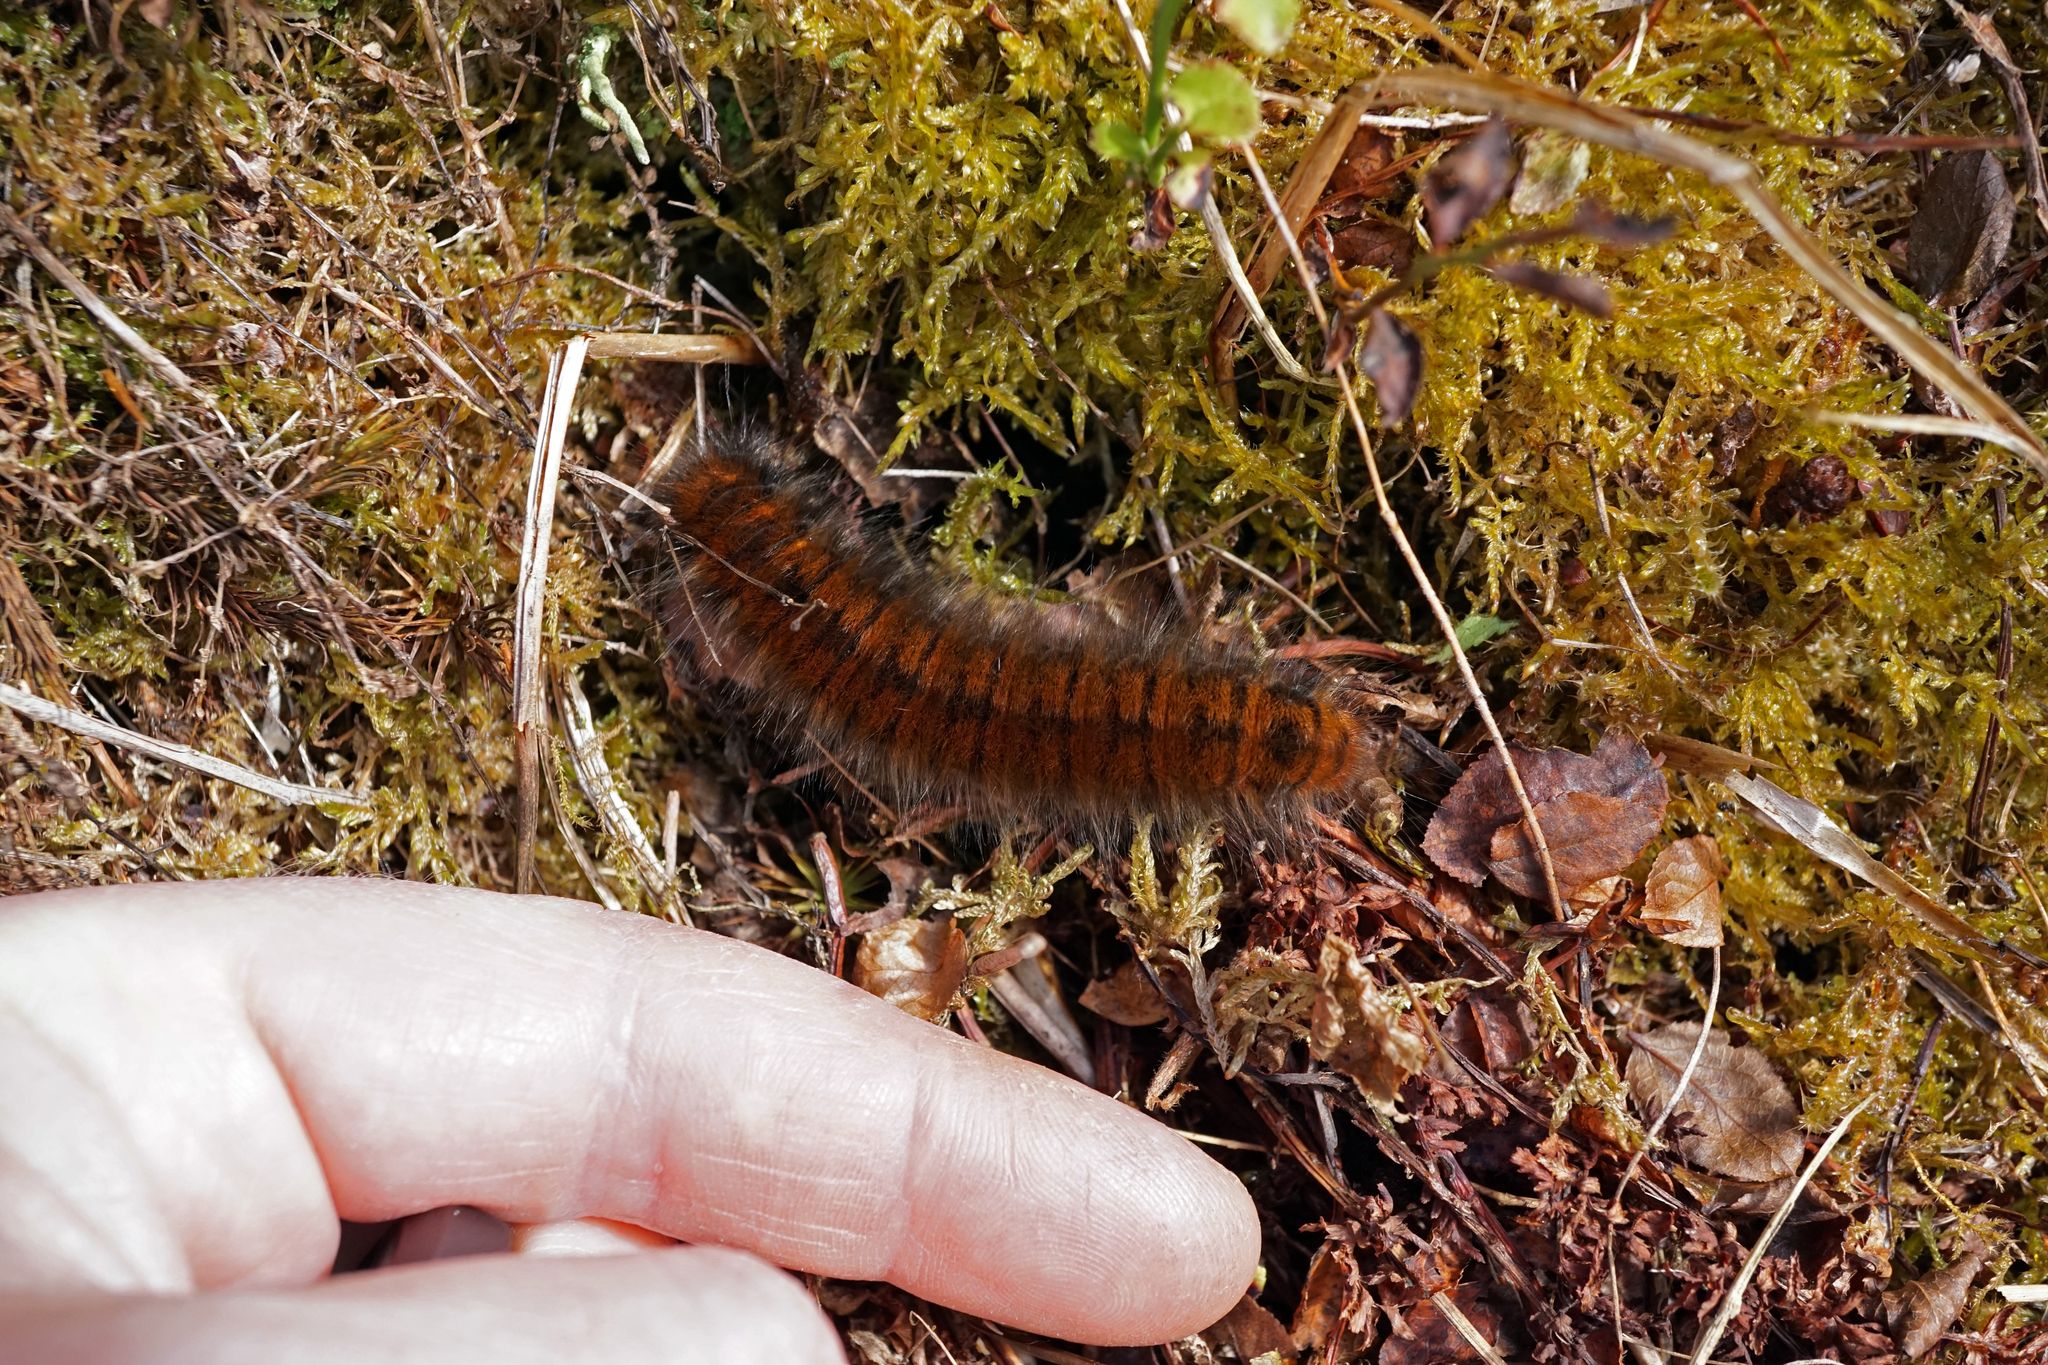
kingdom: Animalia
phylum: Arthropoda
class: Insecta
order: Lepidoptera
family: Lasiocampidae
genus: Macrothylacia
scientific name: Macrothylacia rubi
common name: Fox moth
